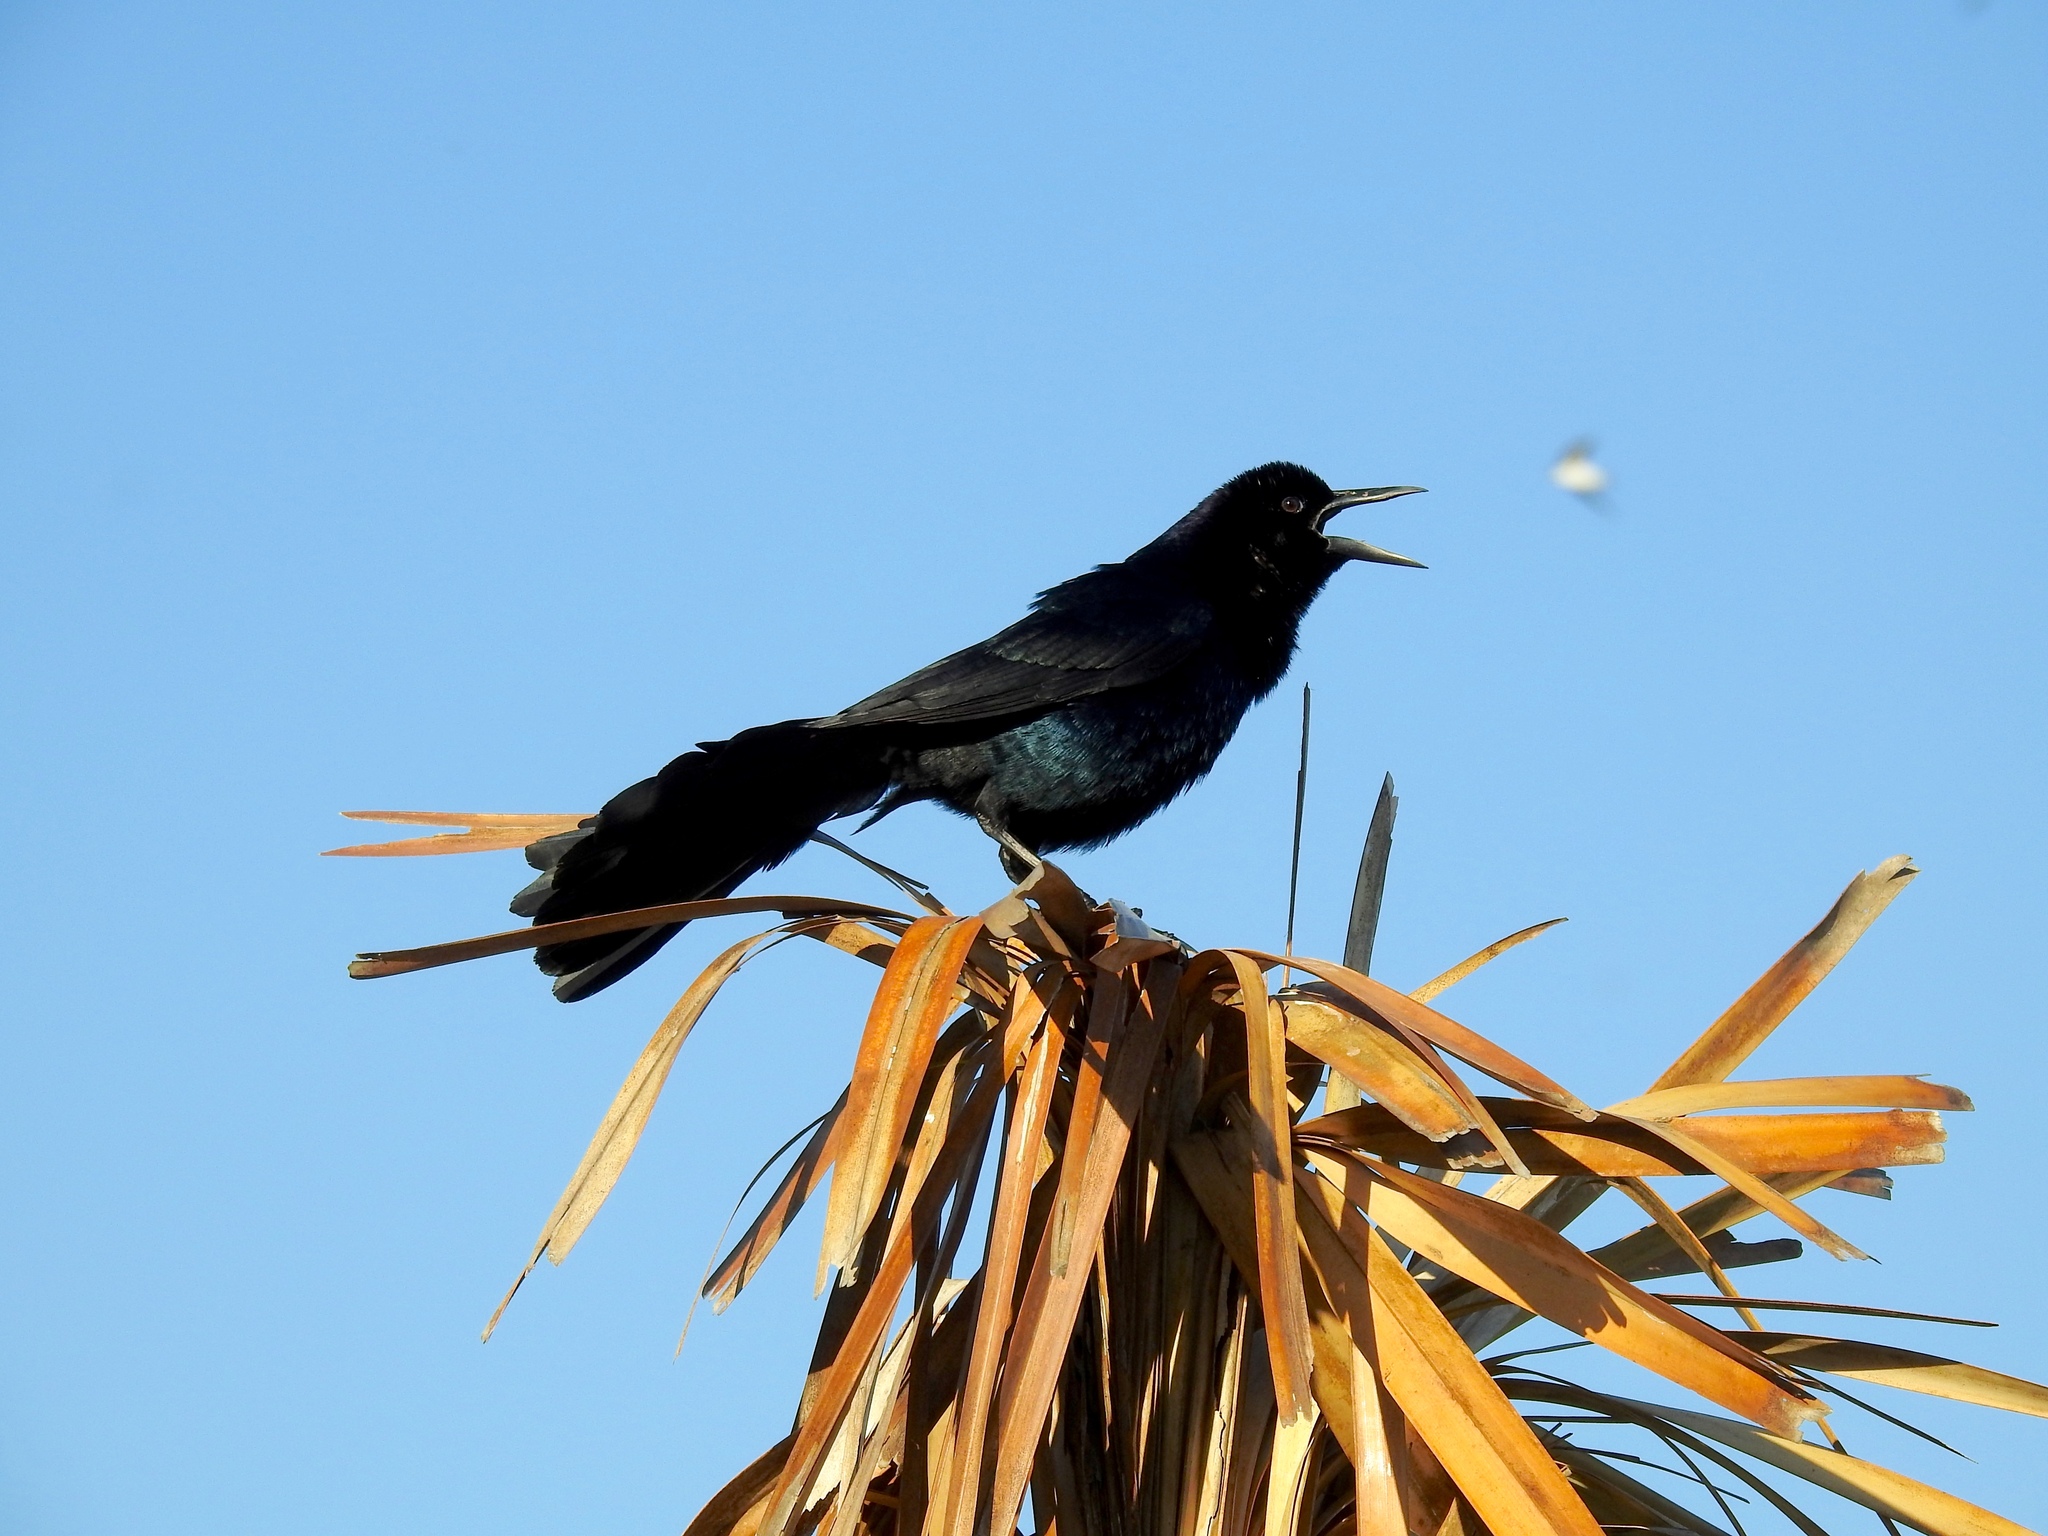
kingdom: Animalia
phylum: Chordata
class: Aves
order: Passeriformes
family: Icteridae
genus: Quiscalus
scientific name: Quiscalus major
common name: Boat-tailed grackle
